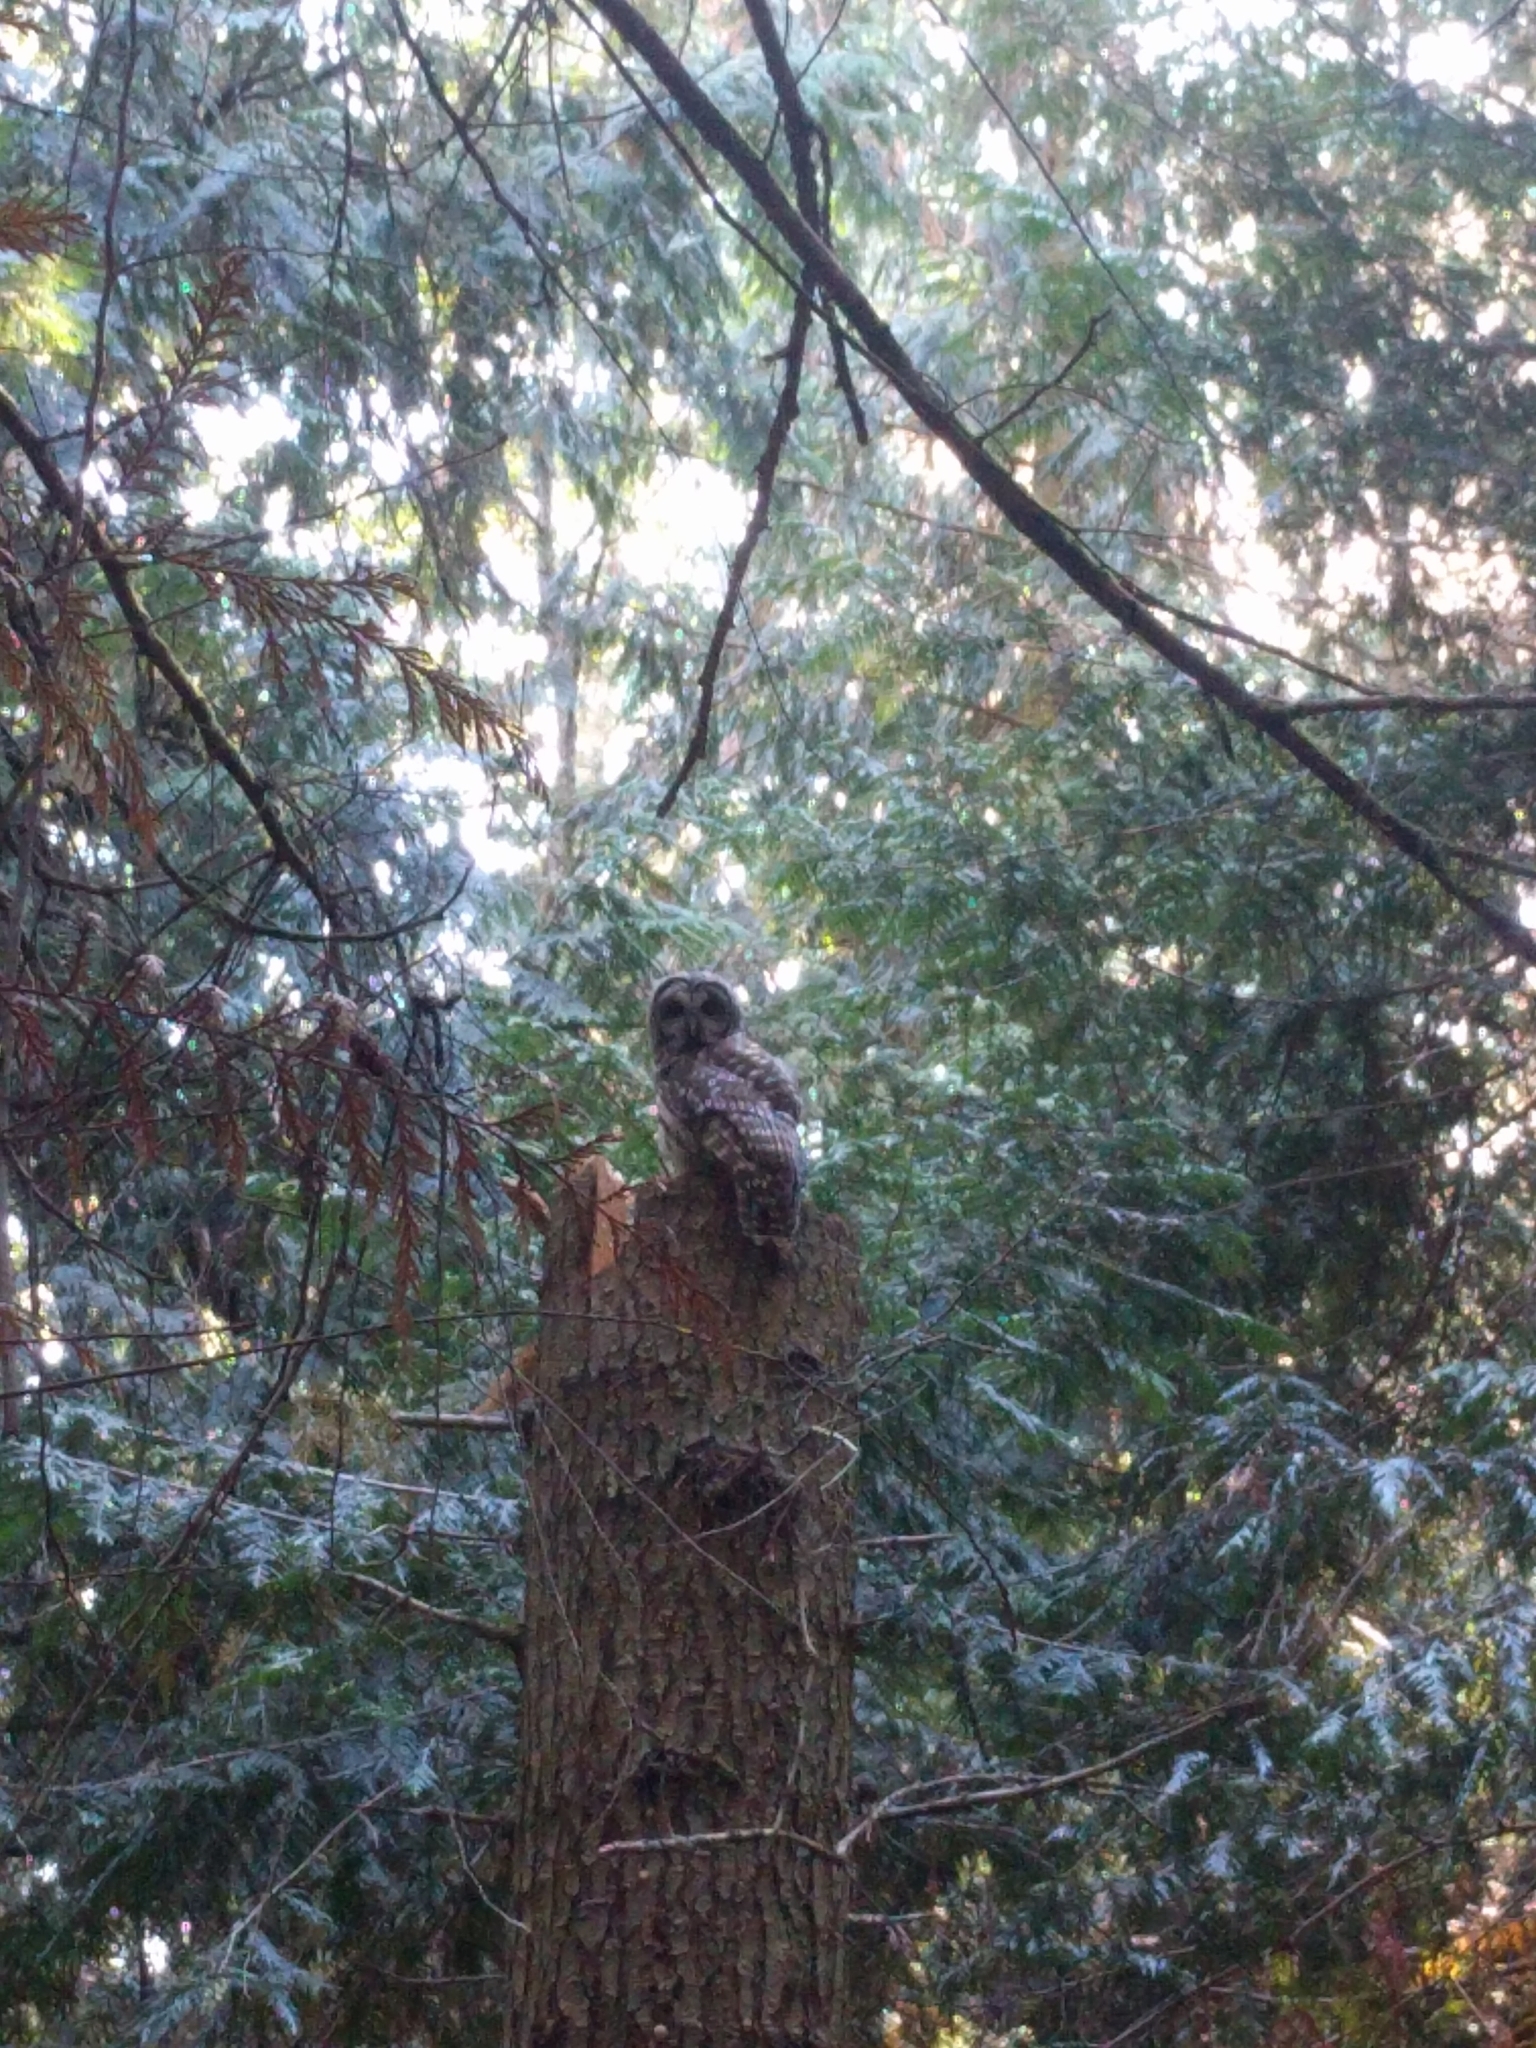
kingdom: Animalia
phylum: Chordata
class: Aves
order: Strigiformes
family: Strigidae
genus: Strix
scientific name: Strix varia
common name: Barred owl
